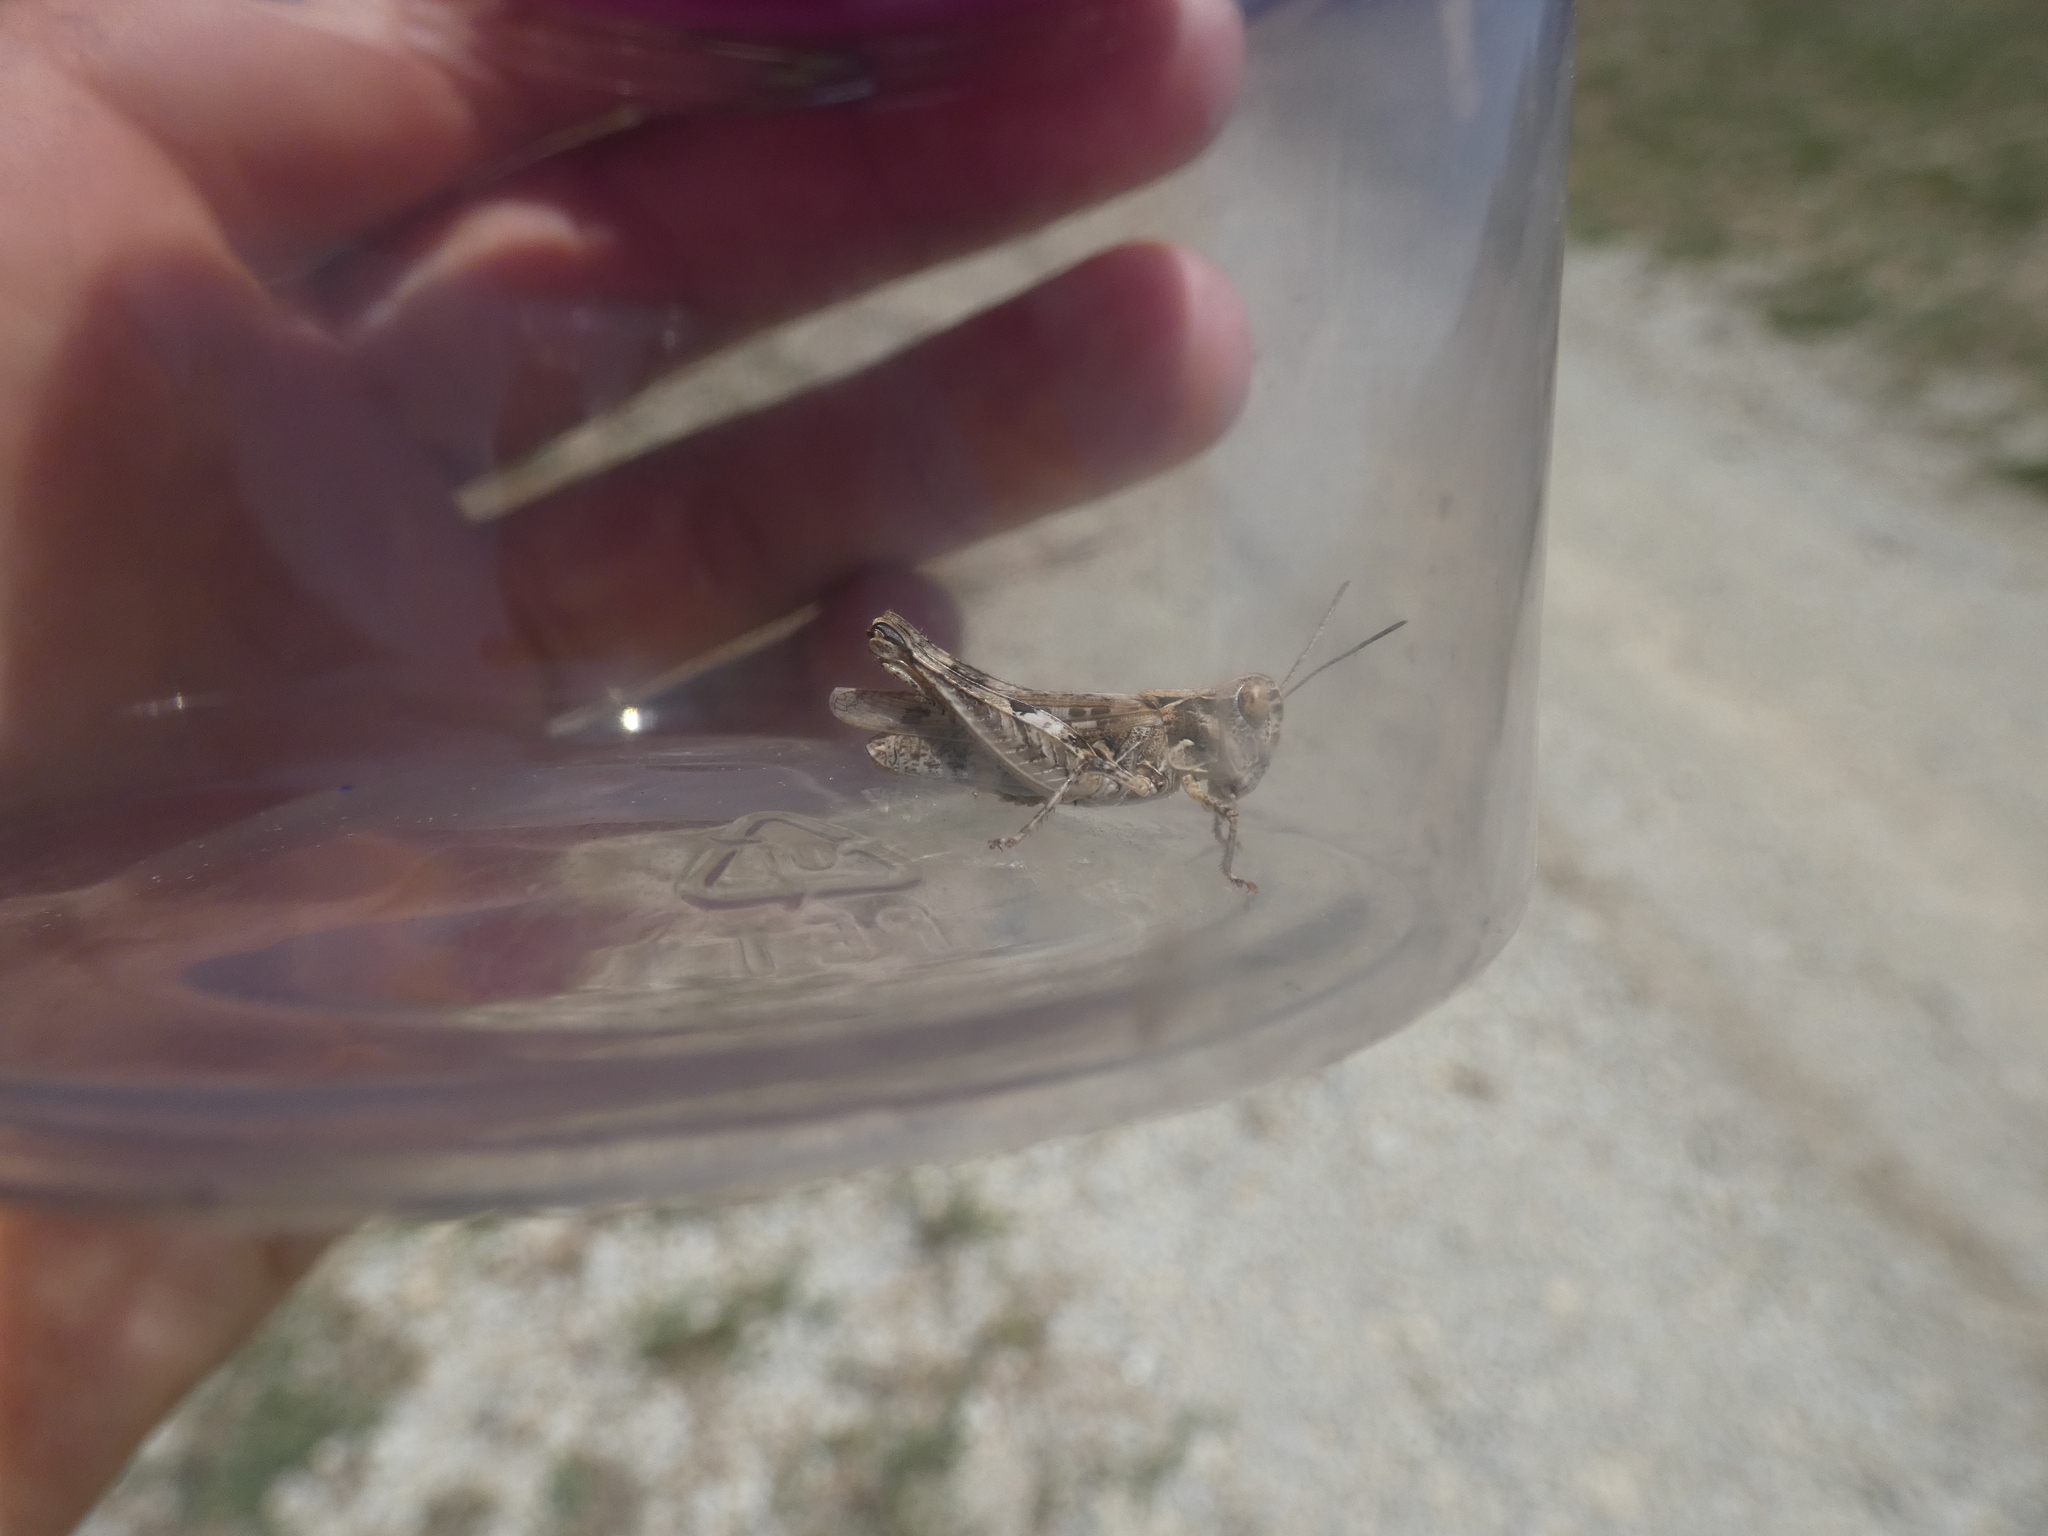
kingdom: Animalia
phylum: Arthropoda
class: Insecta
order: Orthoptera
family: Acrididae
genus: Dociostaurus
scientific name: Dociostaurus jagoi
